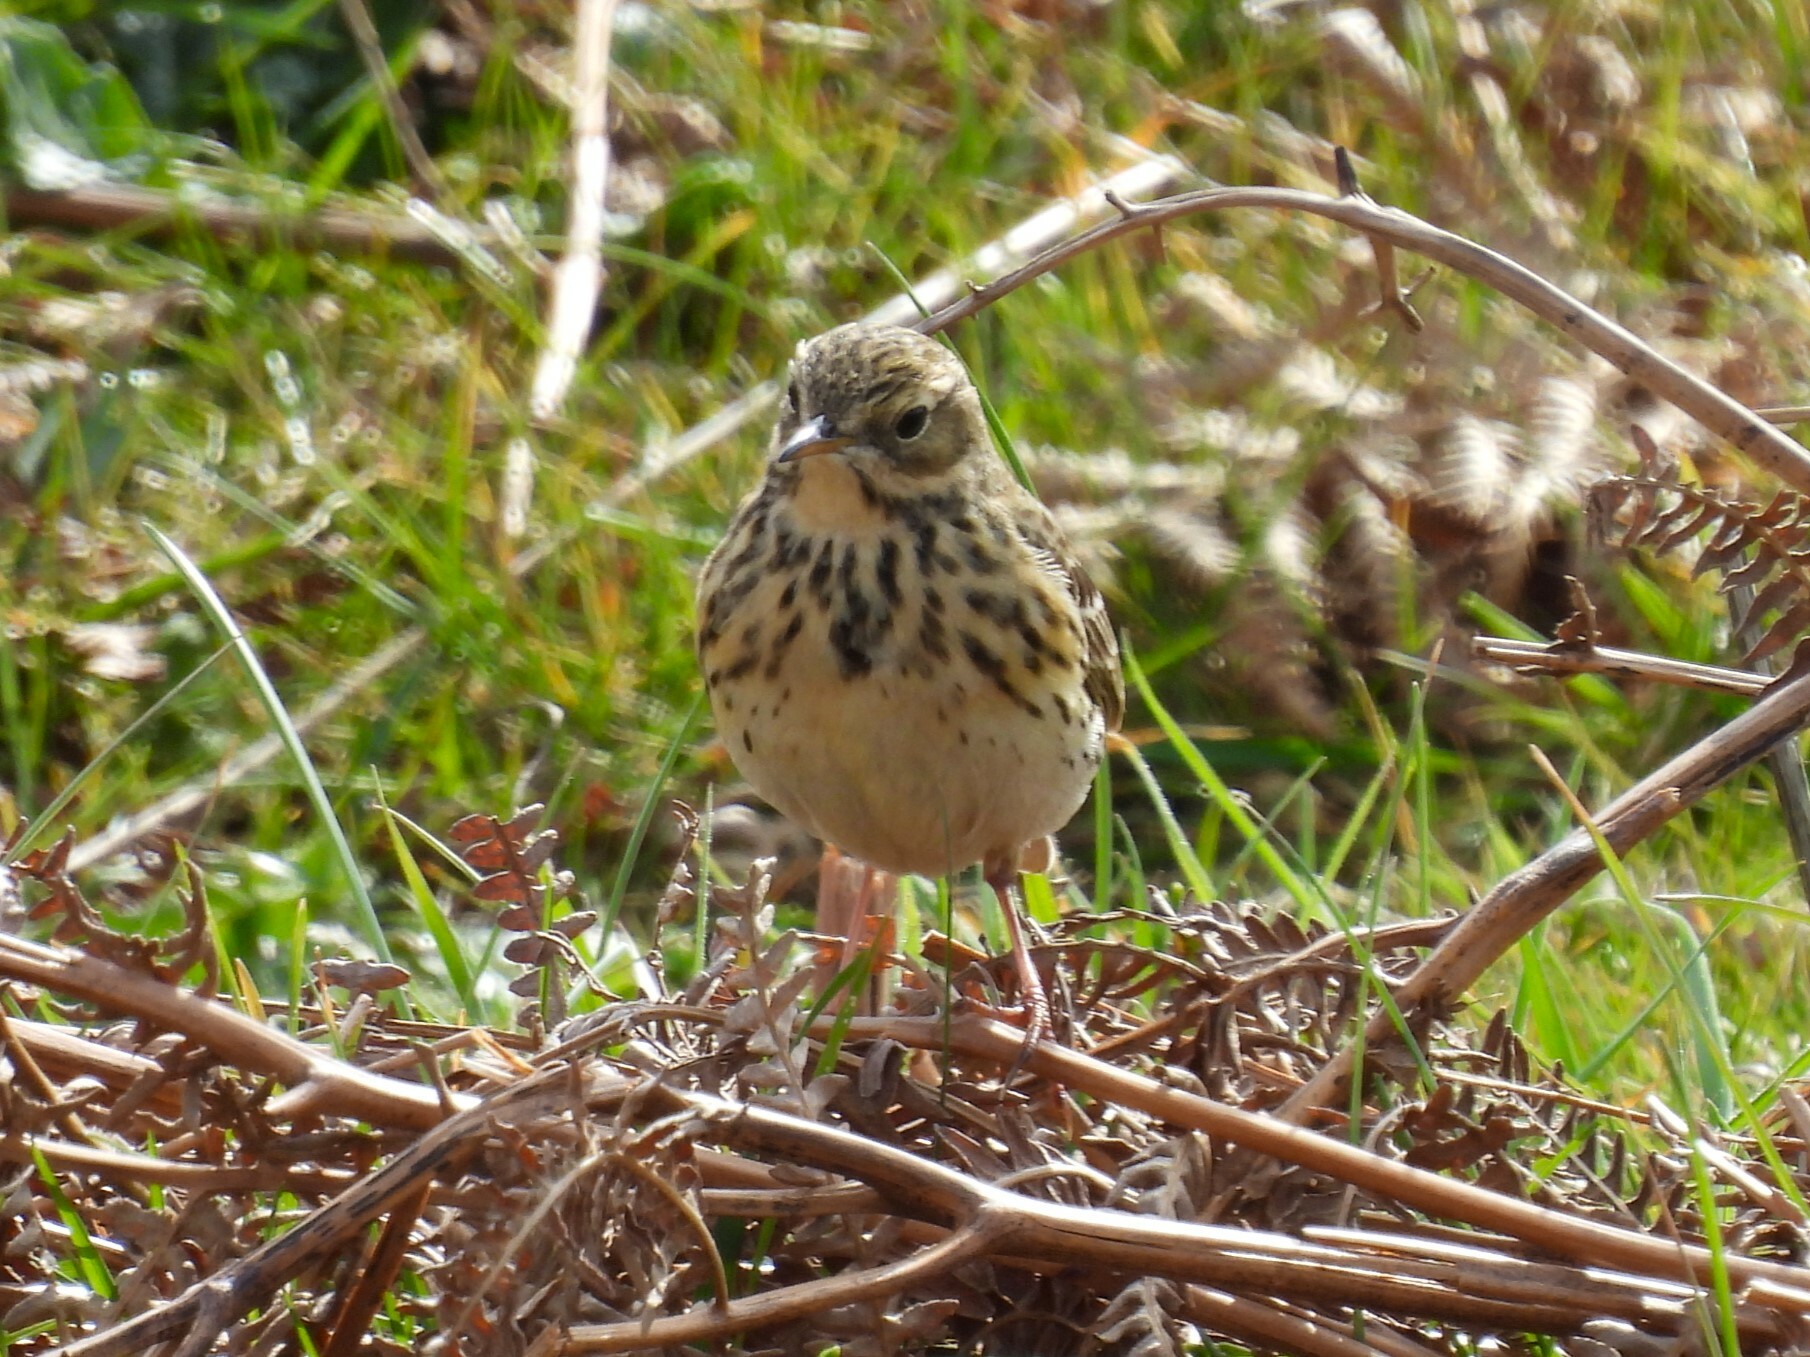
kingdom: Animalia
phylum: Chordata
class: Aves
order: Passeriformes
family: Motacillidae
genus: Anthus
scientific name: Anthus pratensis
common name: Meadow pipit
